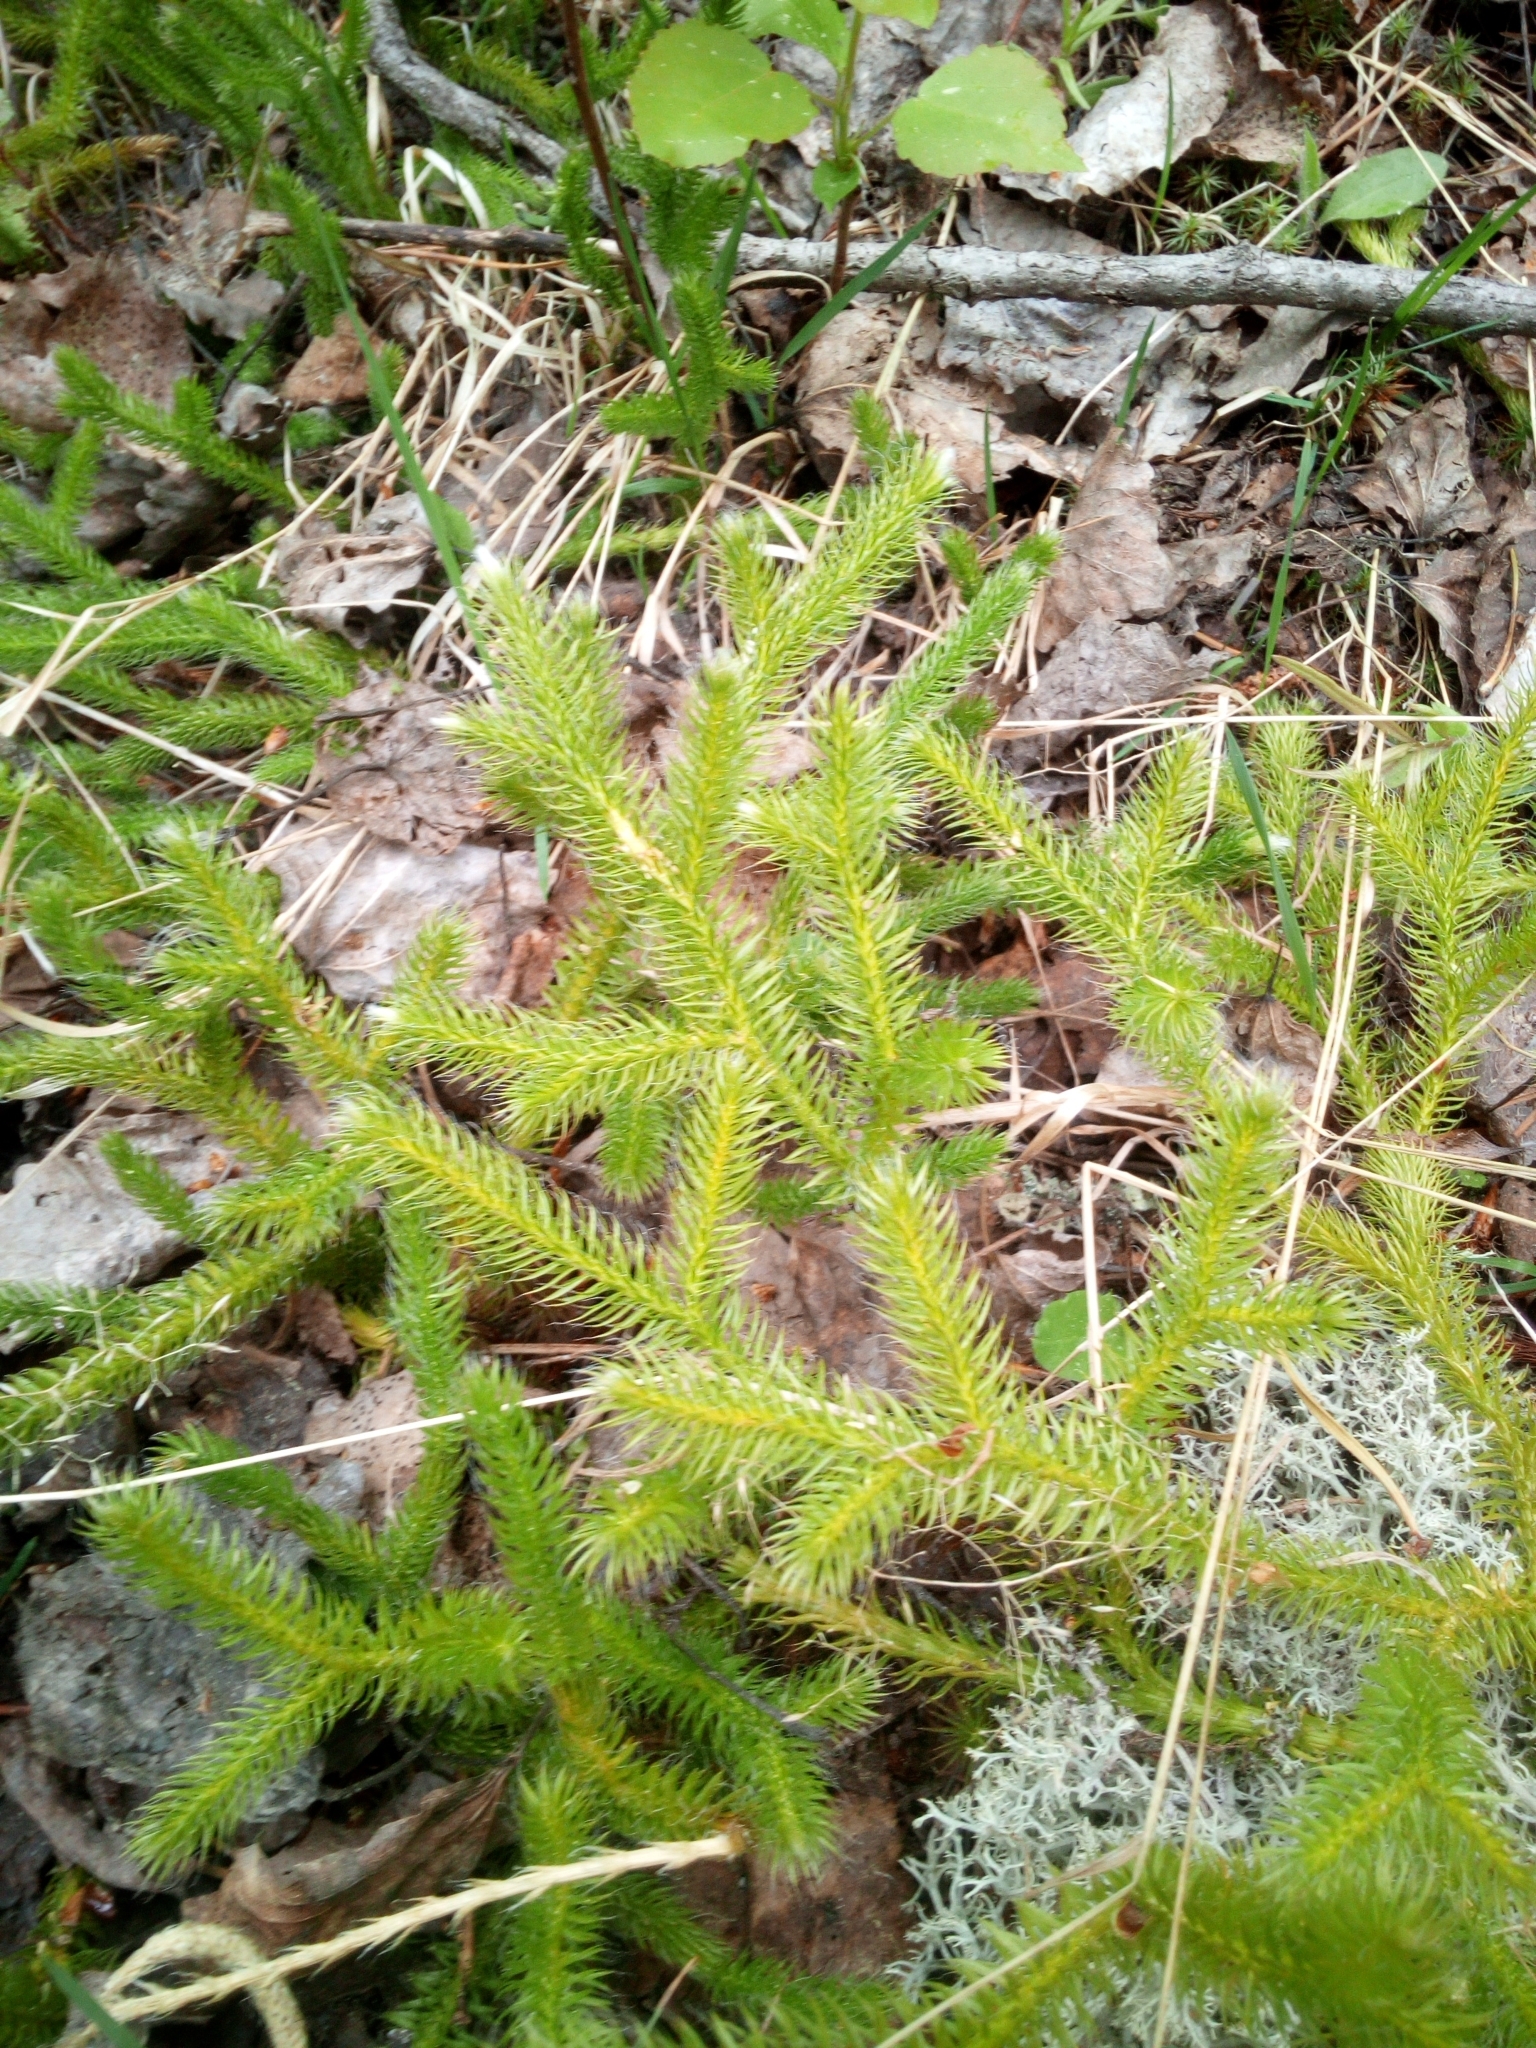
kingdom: Plantae
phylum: Tracheophyta
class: Lycopodiopsida
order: Lycopodiales
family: Lycopodiaceae
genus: Lycopodium
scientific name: Lycopodium clavatum
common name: Stag's-horn clubmoss
